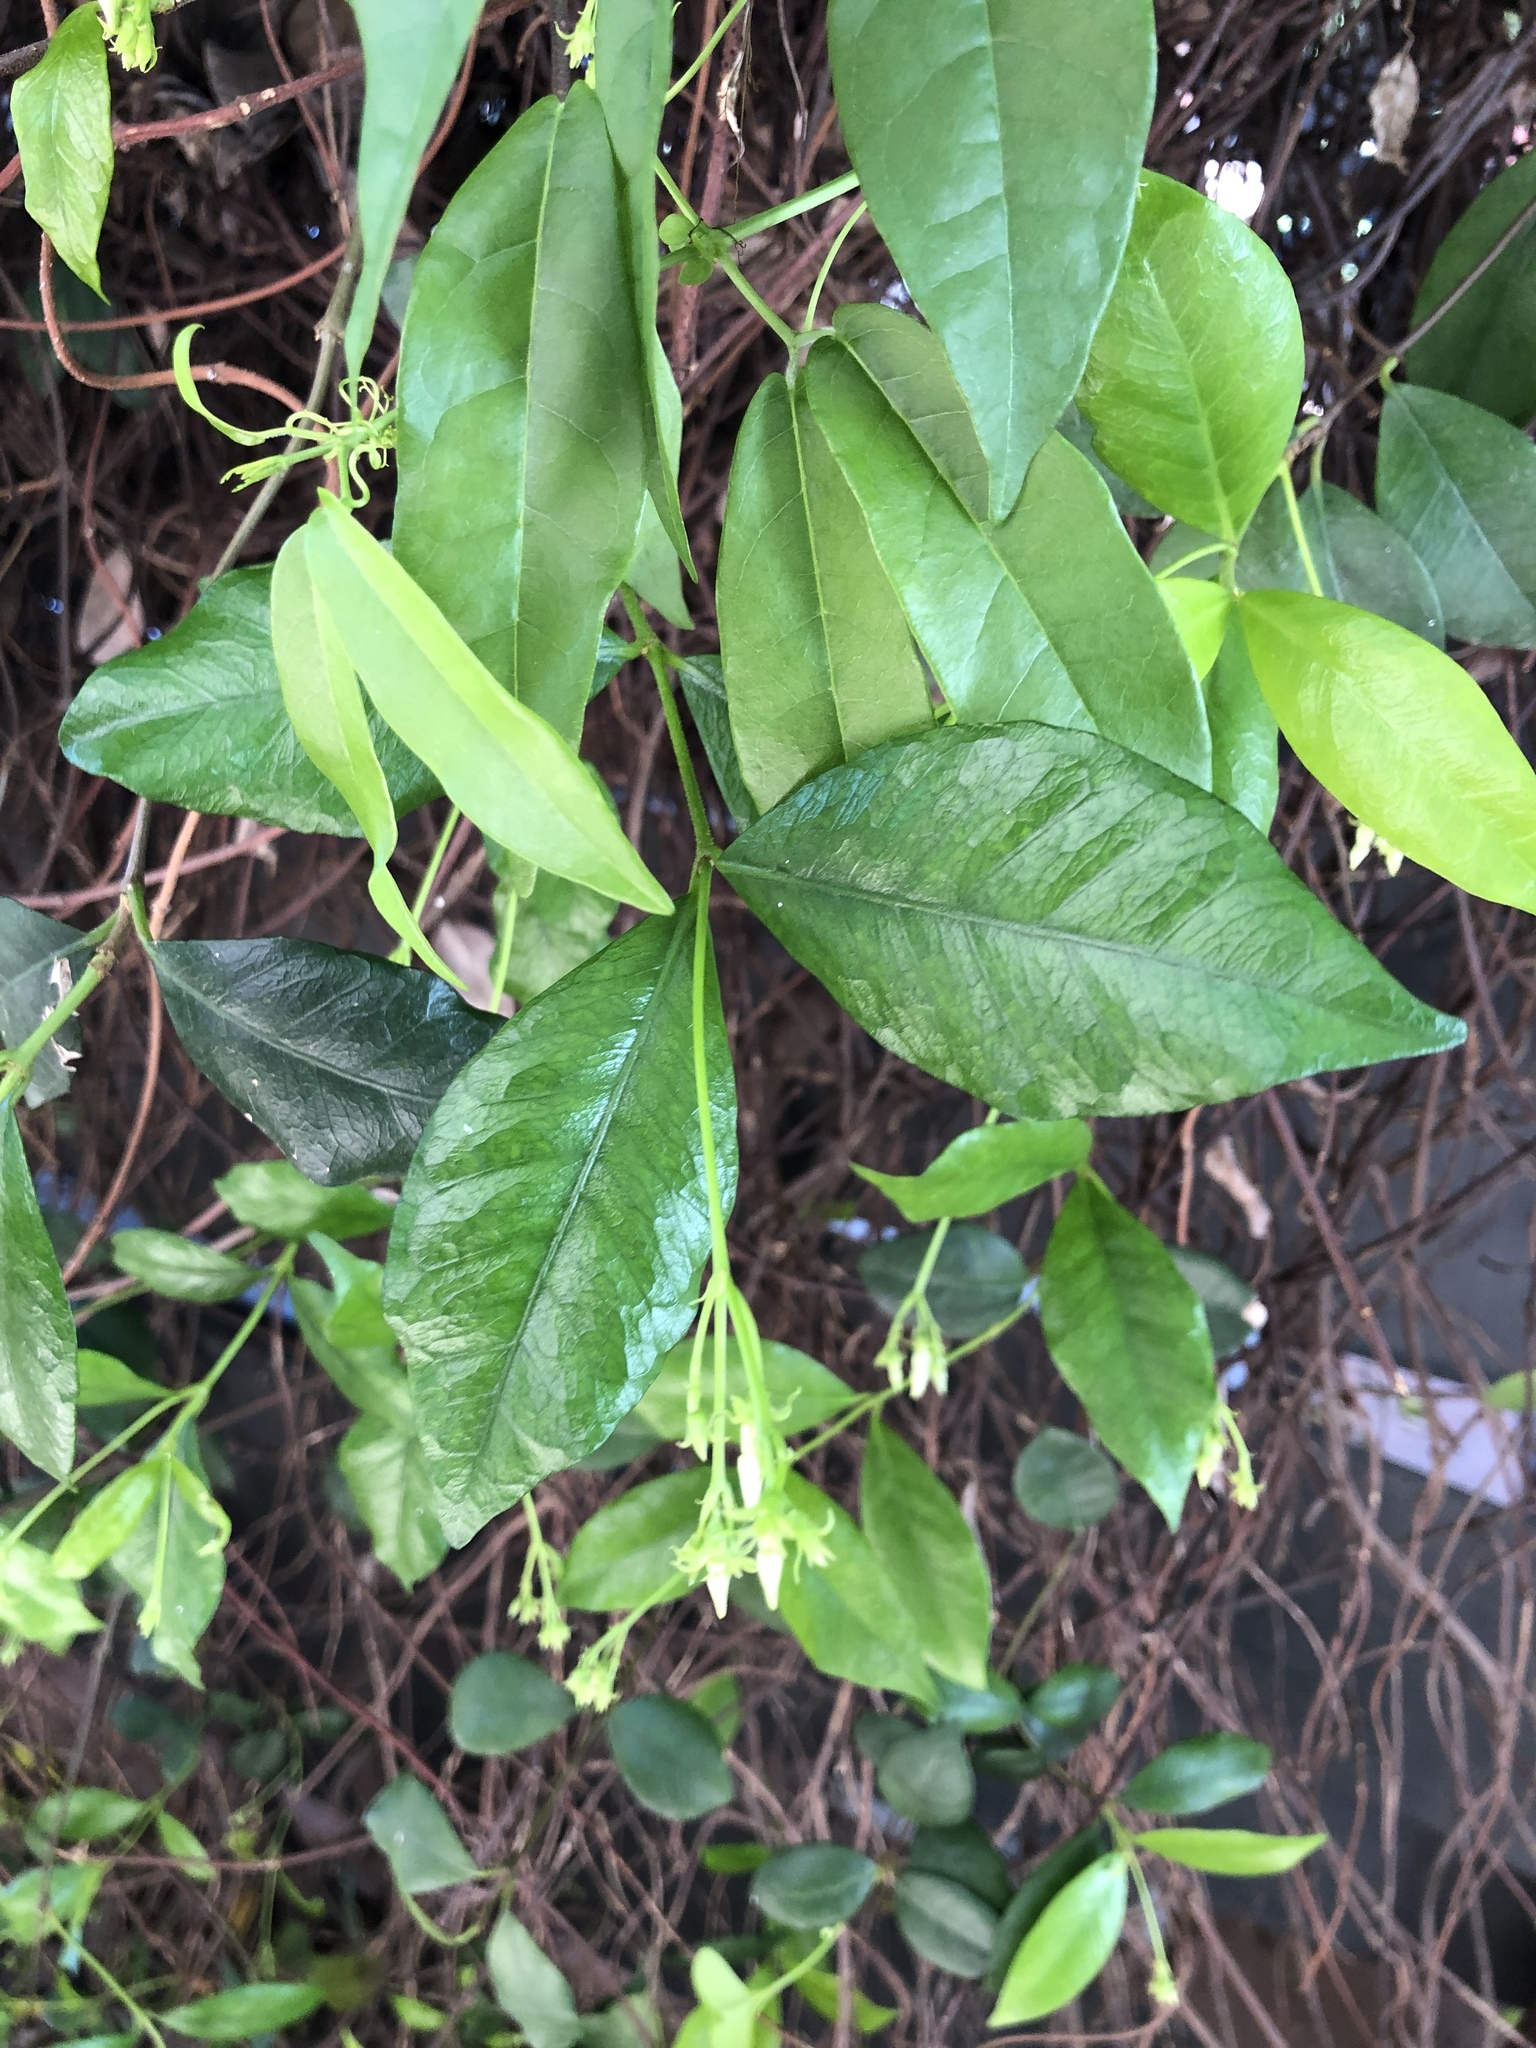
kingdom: Plantae
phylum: Tracheophyta
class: Magnoliopsida
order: Gentianales
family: Apocynaceae
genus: Trachelospermum
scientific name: Trachelospermum jasminoides
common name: Confederate jasmine
